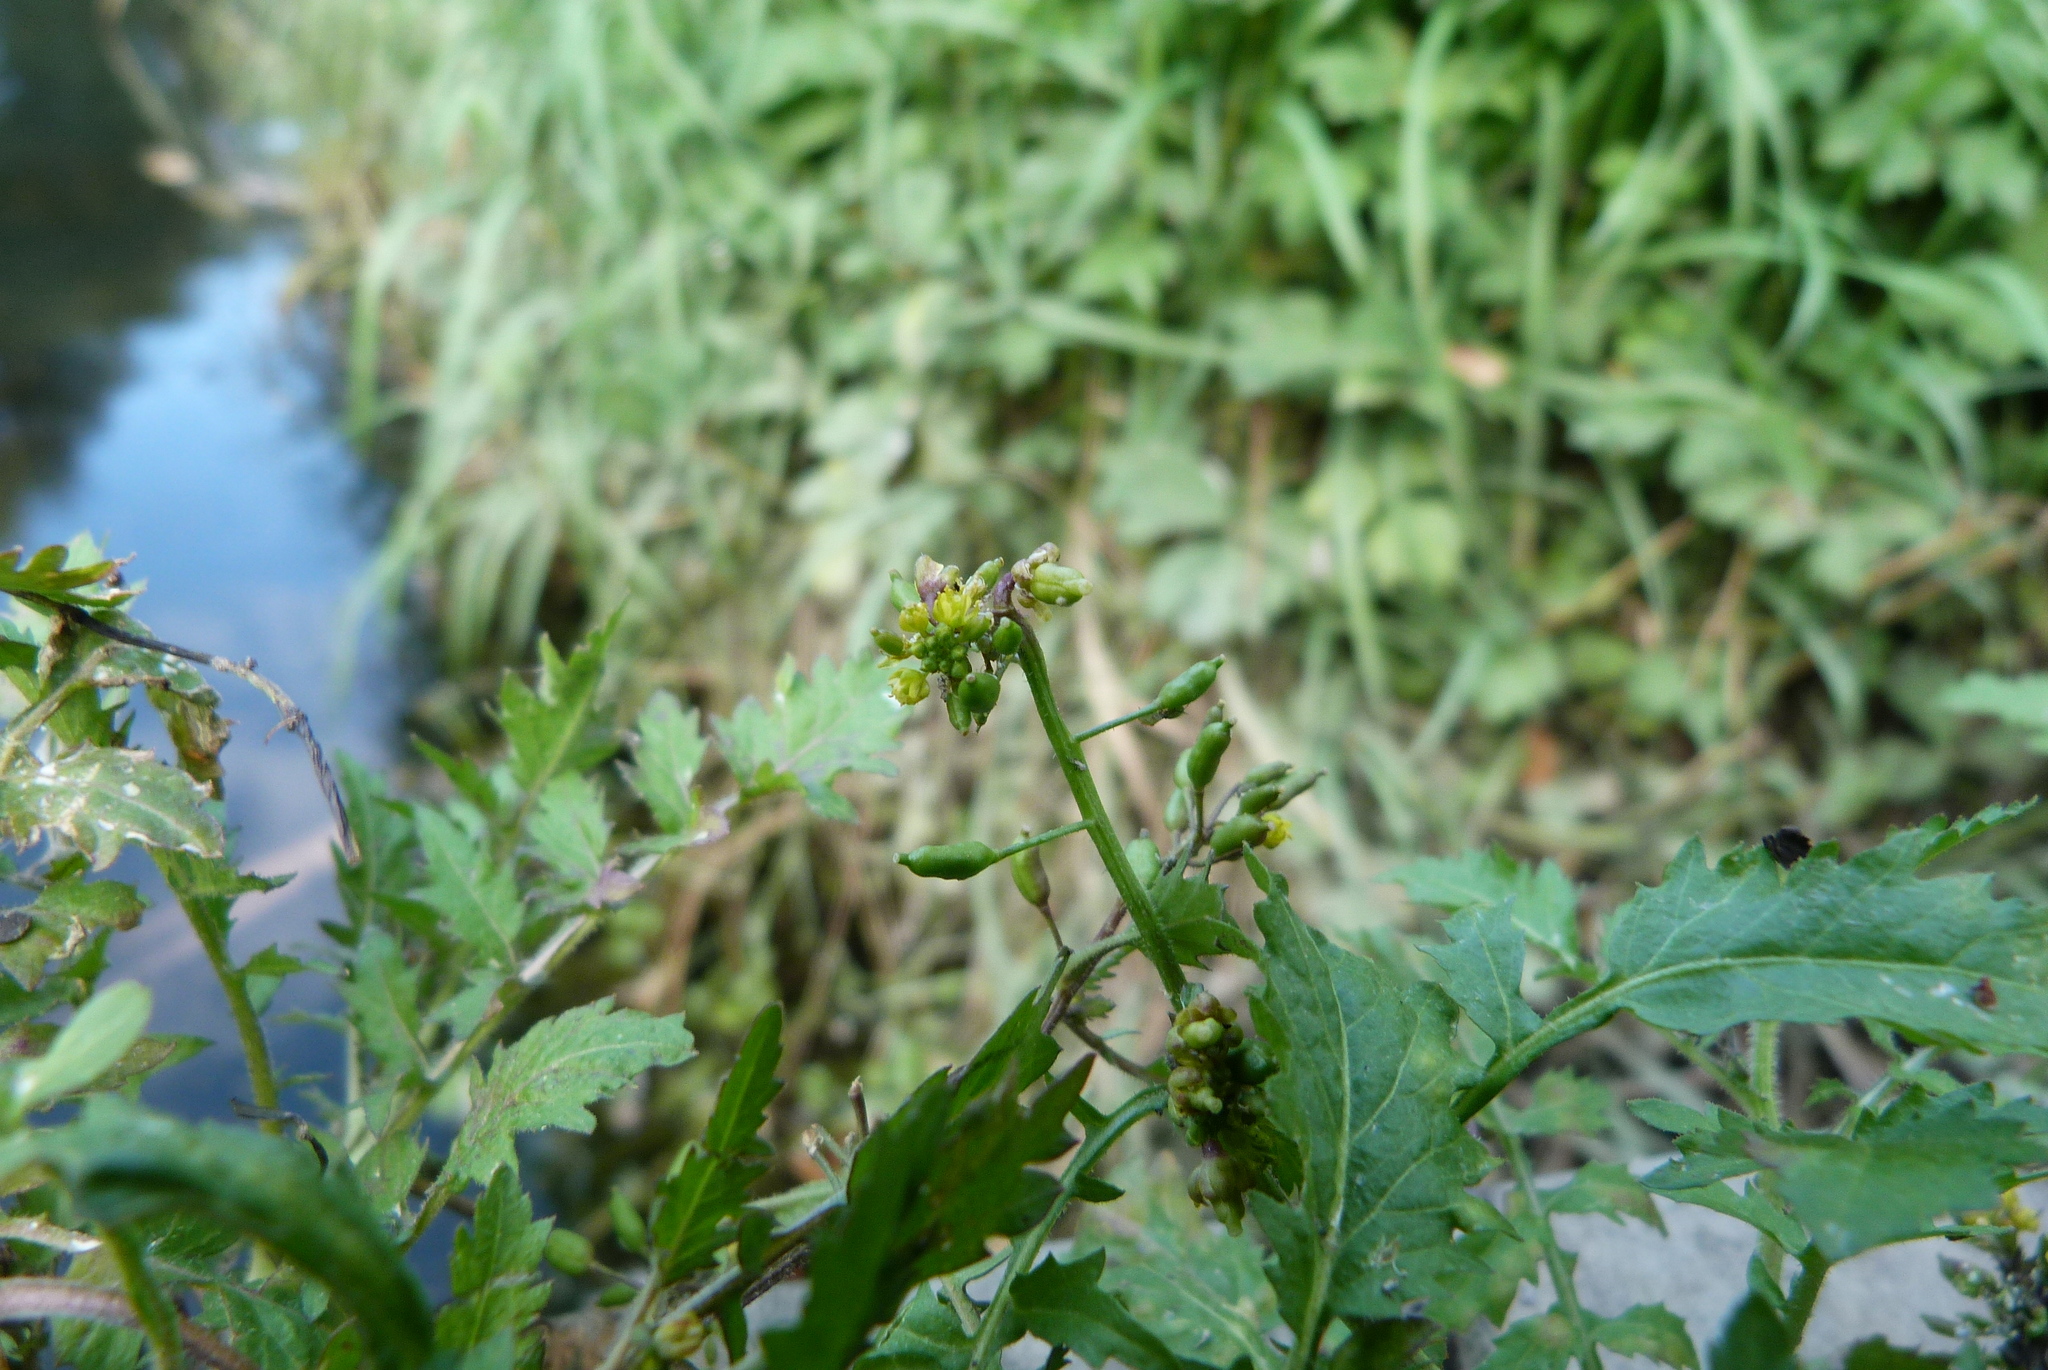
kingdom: Plantae
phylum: Tracheophyta
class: Magnoliopsida
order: Brassicales
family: Brassicaceae
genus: Rorippa
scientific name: Rorippa palustris
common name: Marsh yellow-cress
